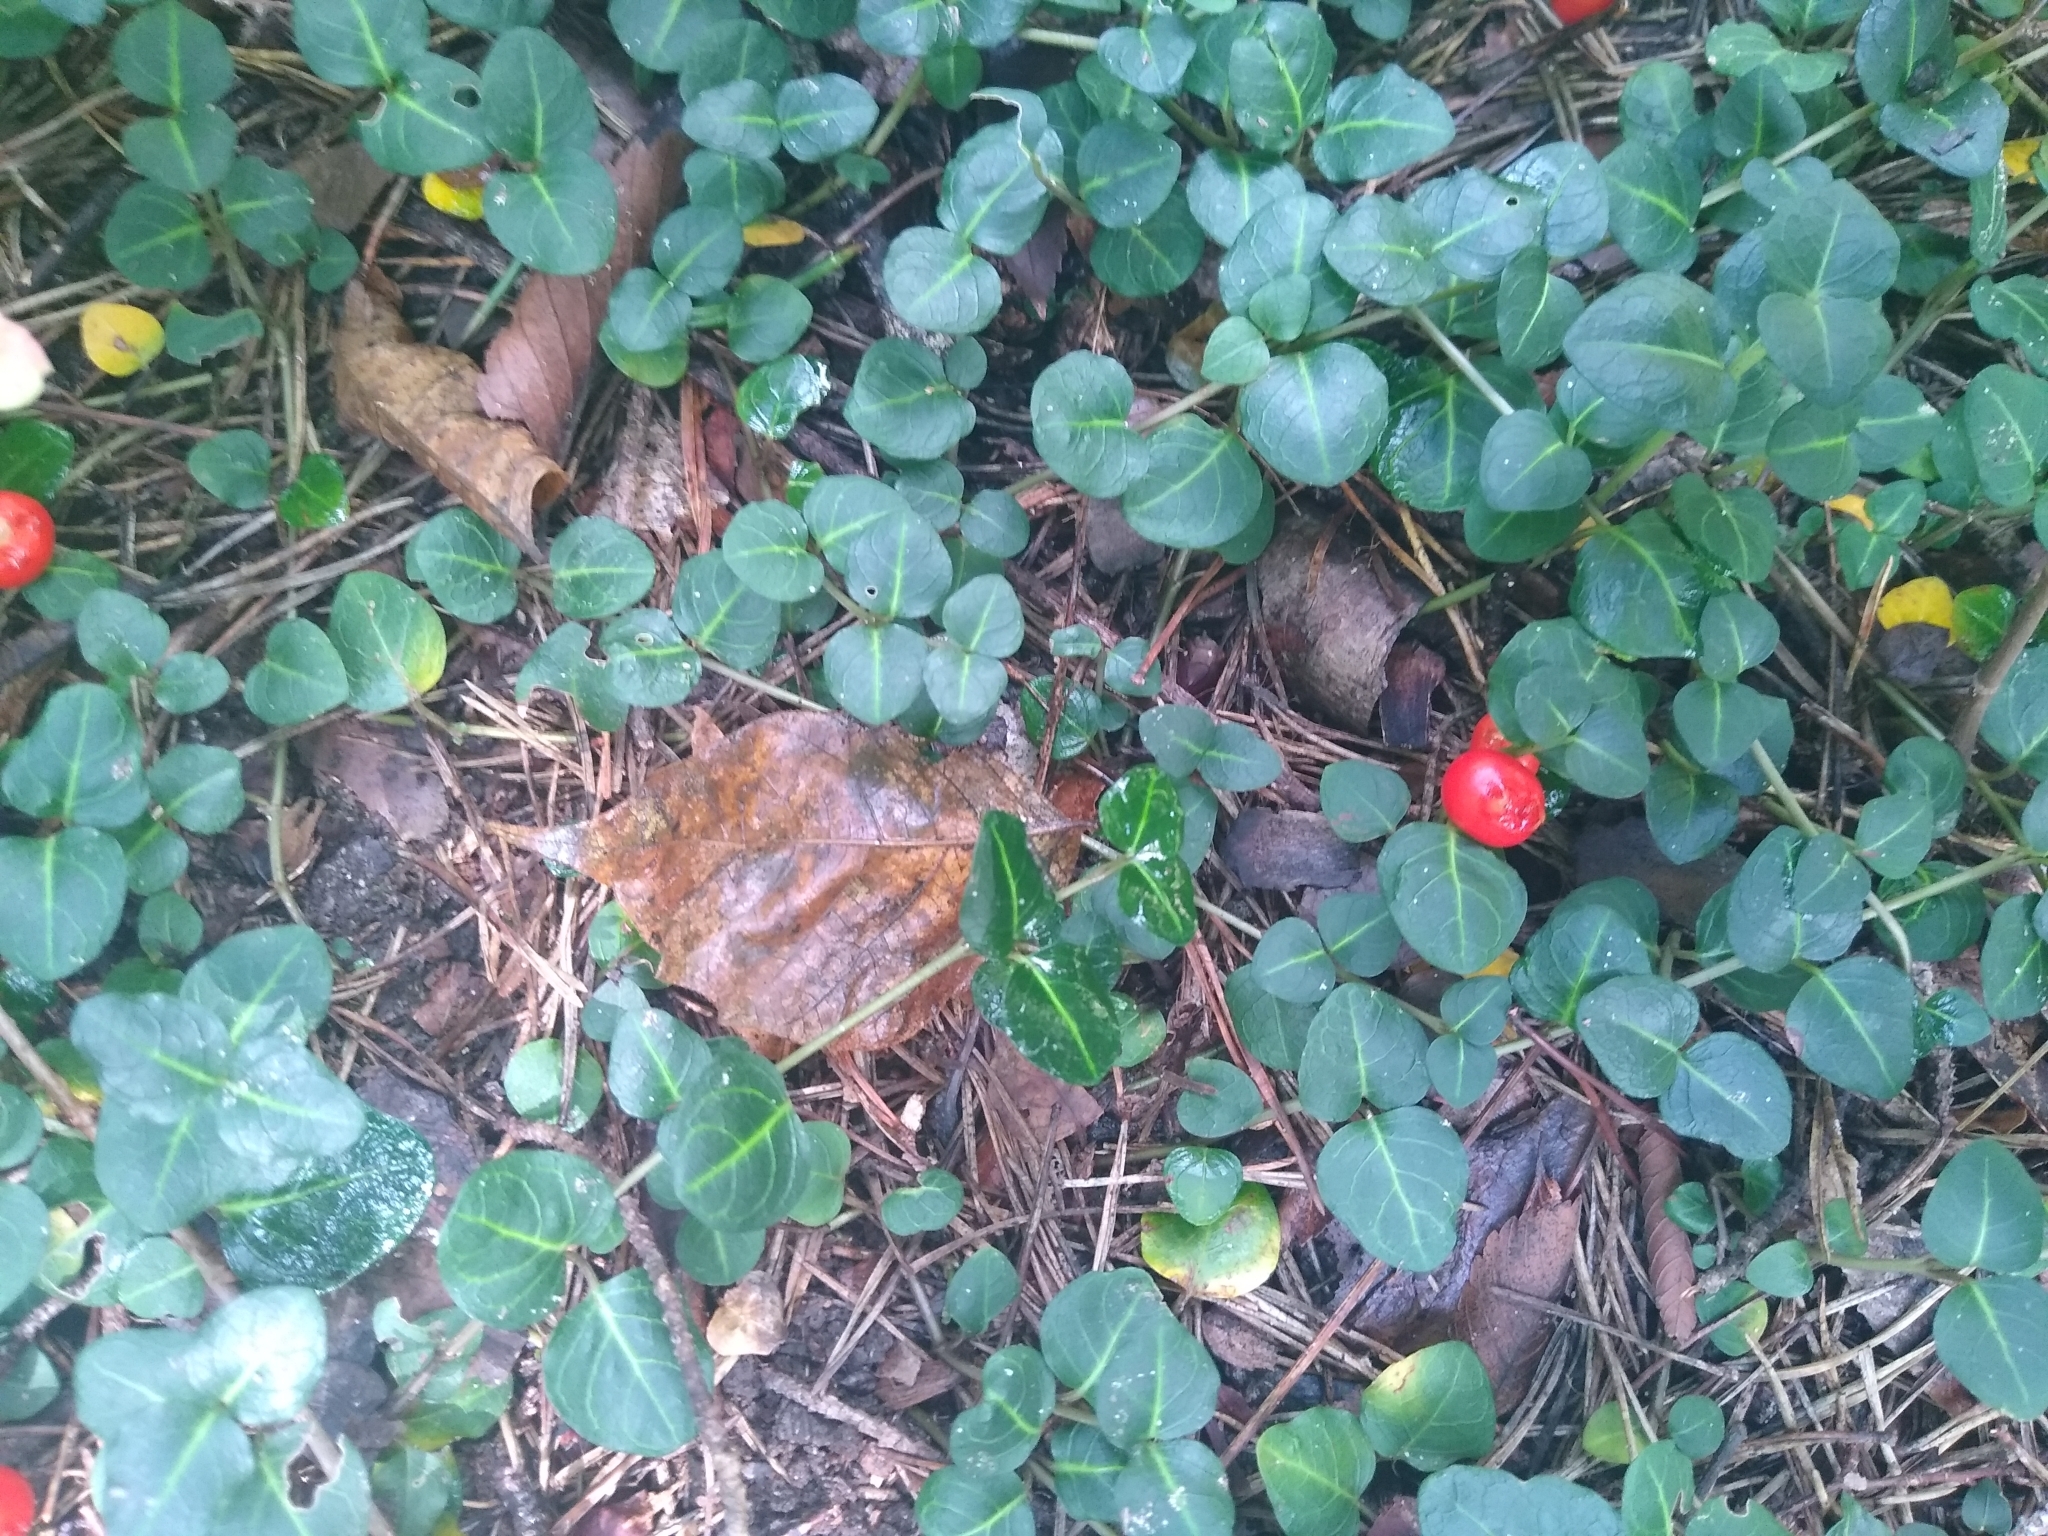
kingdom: Plantae
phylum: Tracheophyta
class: Magnoliopsida
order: Gentianales
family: Rubiaceae
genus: Mitchella
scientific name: Mitchella repens
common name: Partridge-berry
